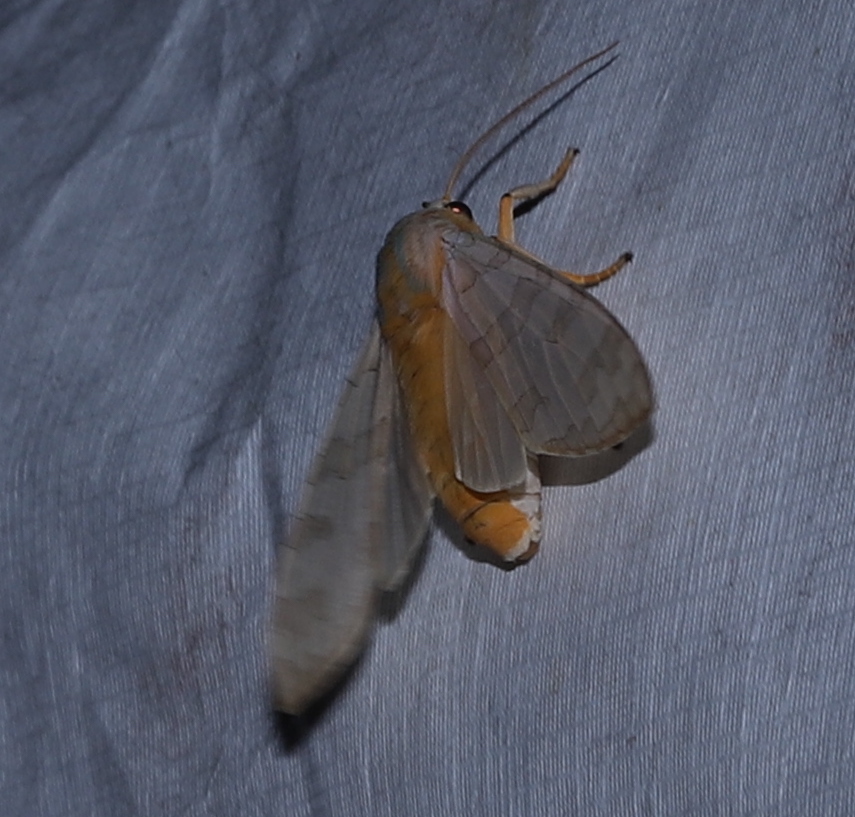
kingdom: Animalia
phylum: Arthropoda
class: Insecta
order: Lepidoptera
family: Erebidae
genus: Halysidota
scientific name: Halysidota
